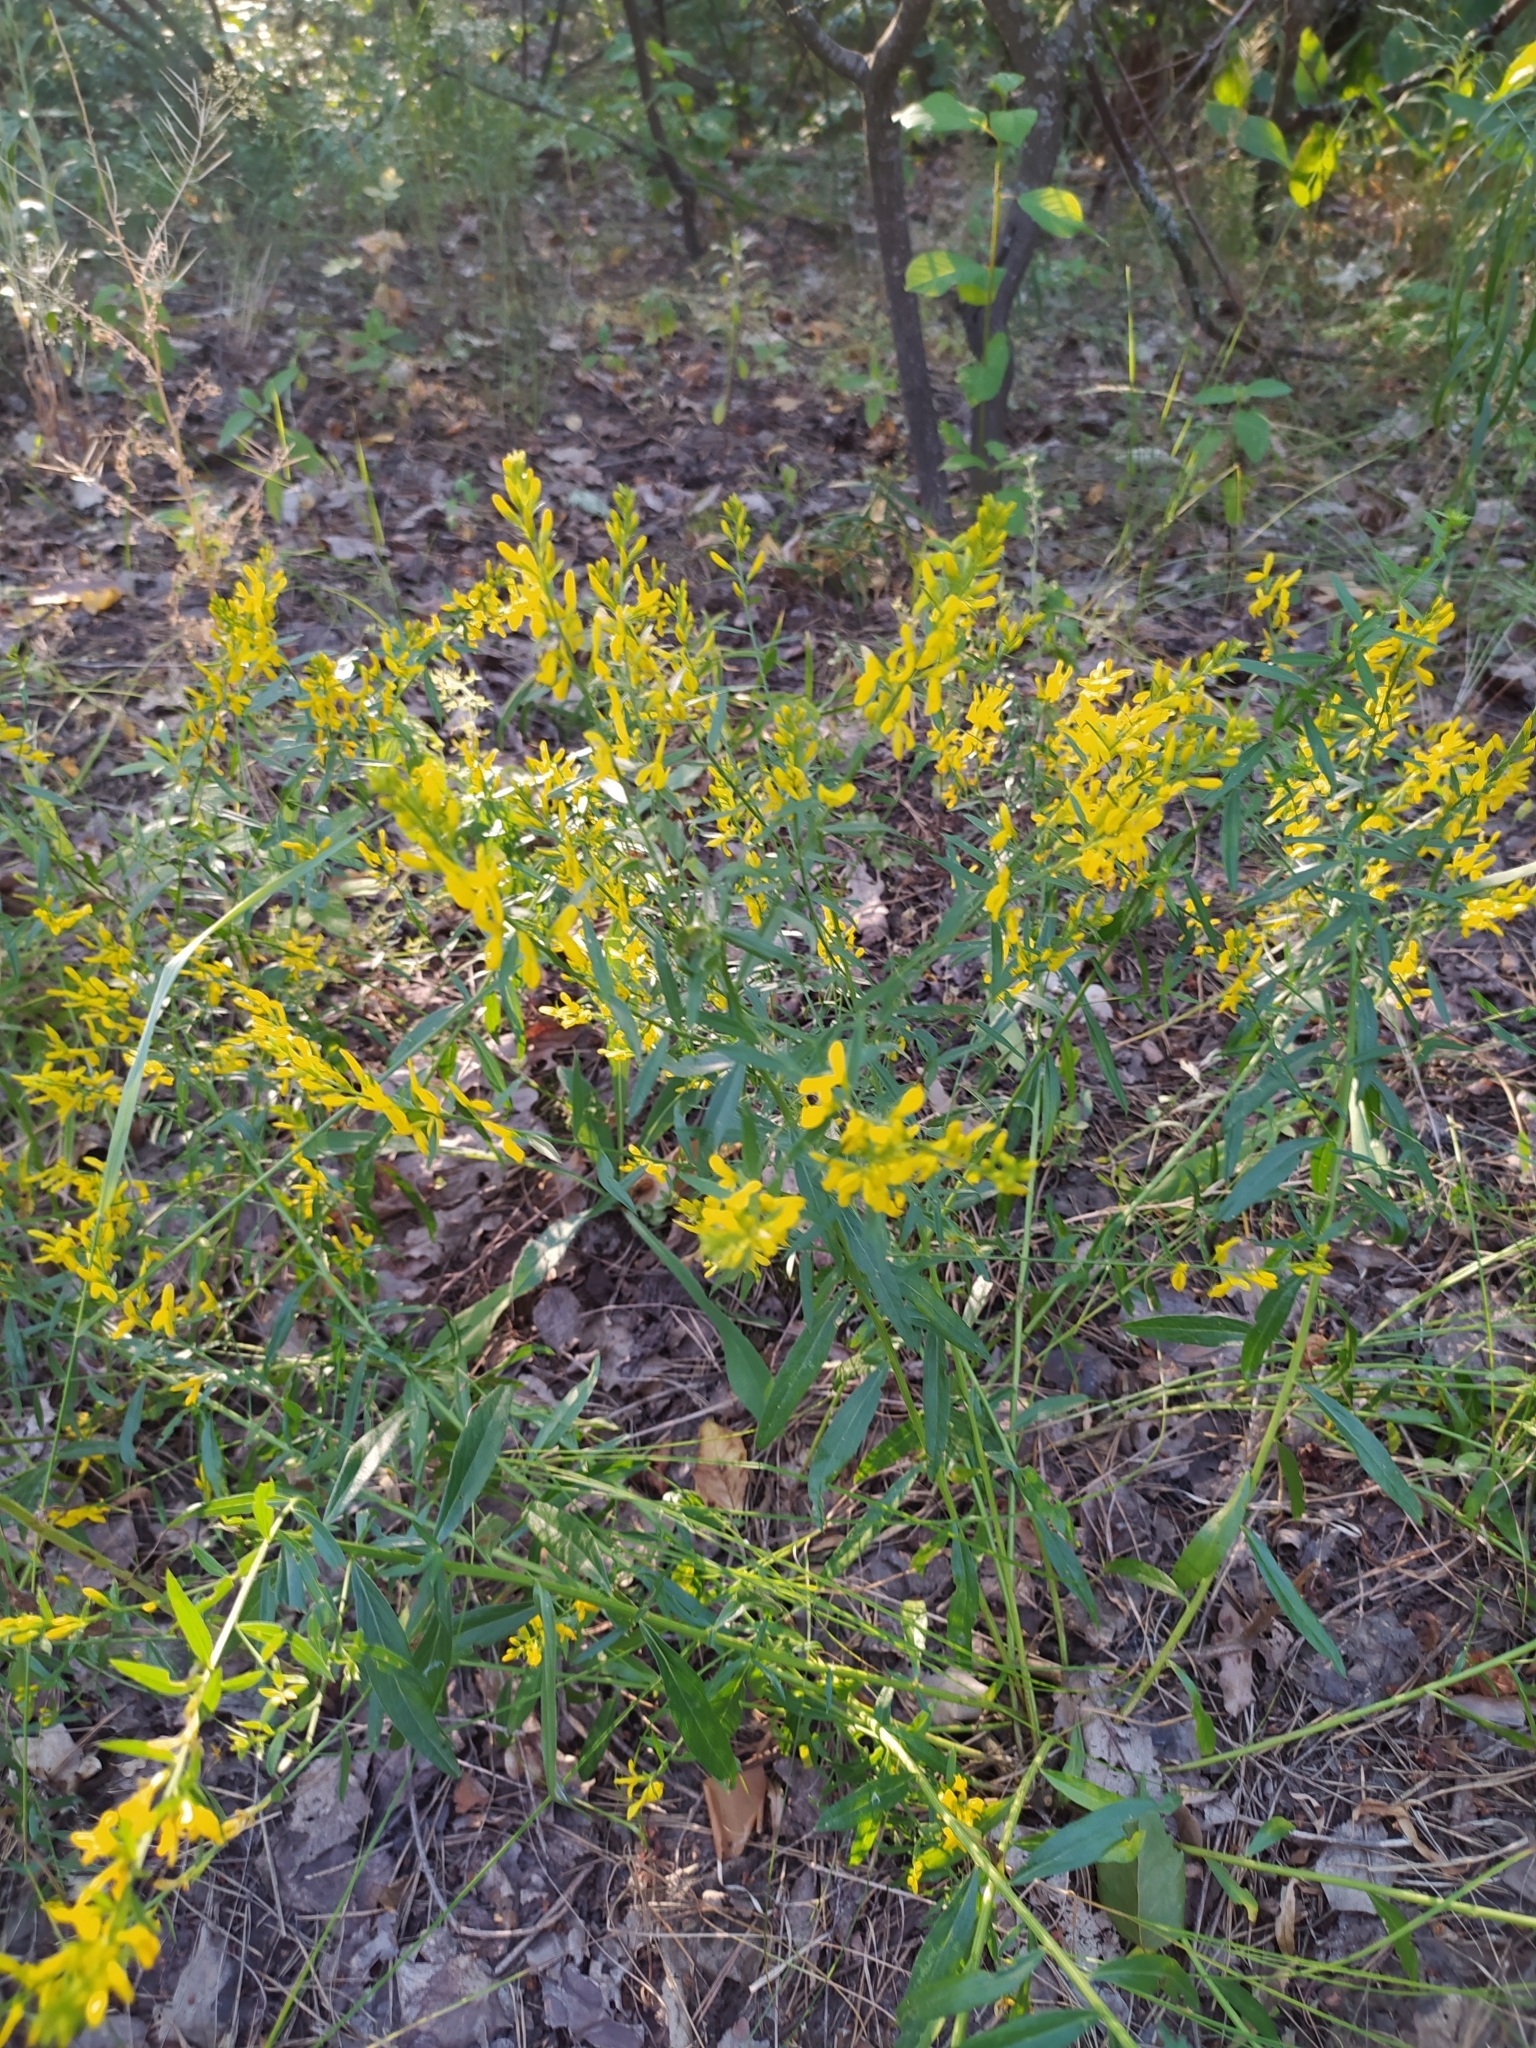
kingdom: Plantae
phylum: Tracheophyta
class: Magnoliopsida
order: Fabales
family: Fabaceae
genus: Genista
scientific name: Genista tinctoria
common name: Dyer's greenweed
